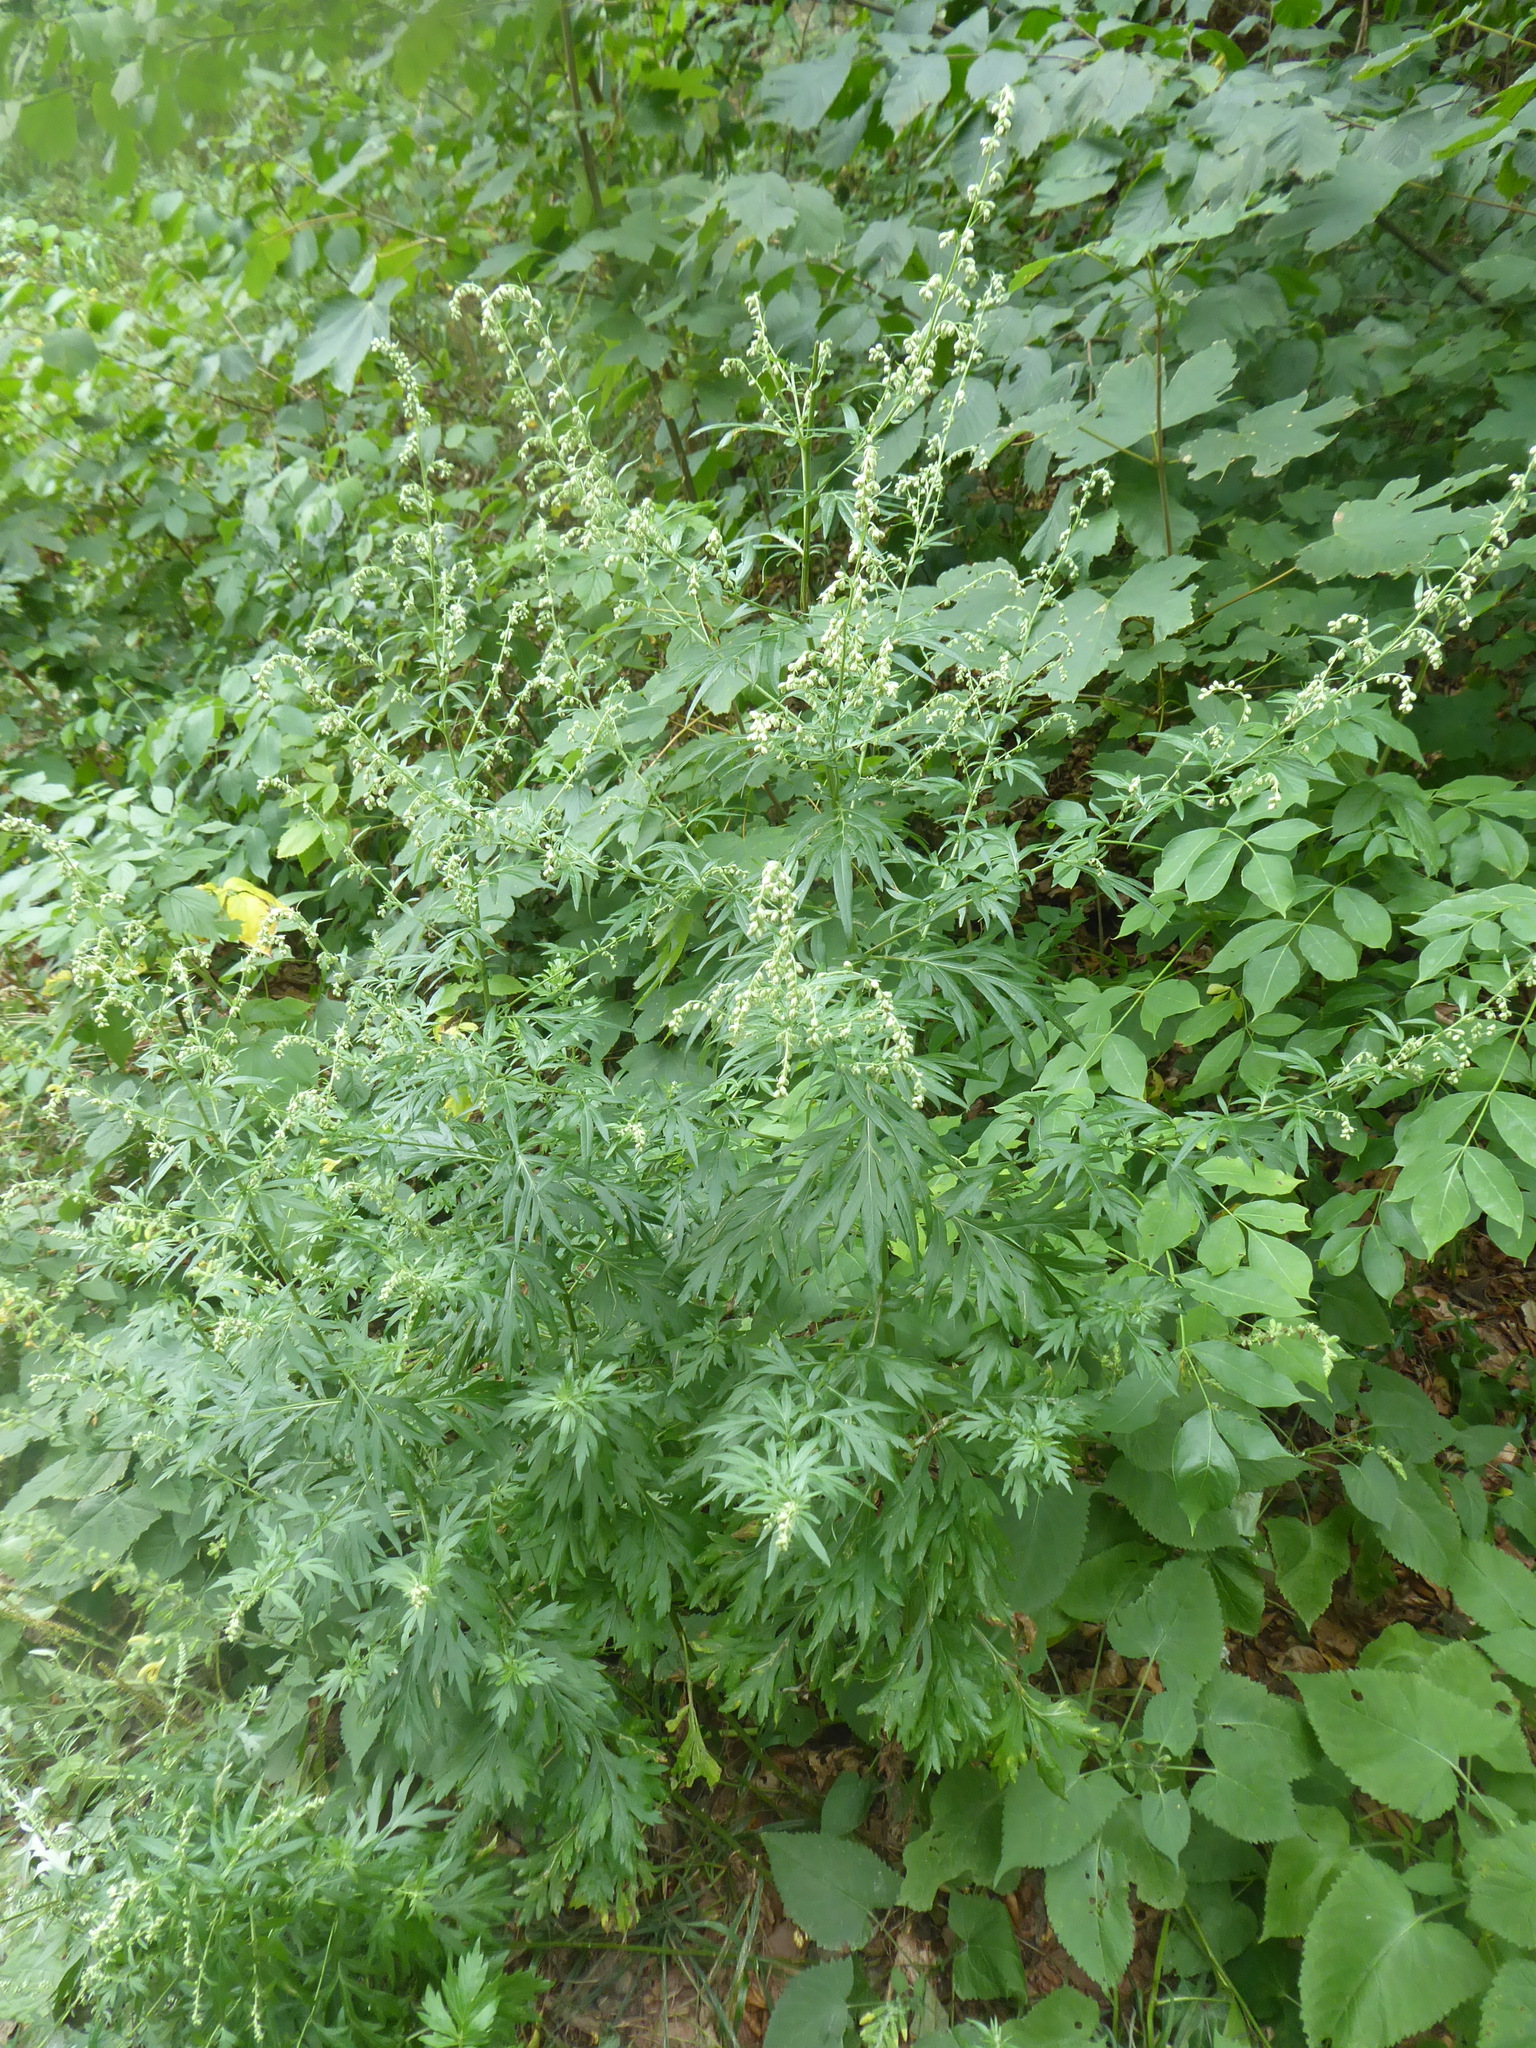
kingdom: Plantae
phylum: Tracheophyta
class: Magnoliopsida
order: Asterales
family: Asteraceae
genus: Artemisia
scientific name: Artemisia vulgaris
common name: Mugwort
